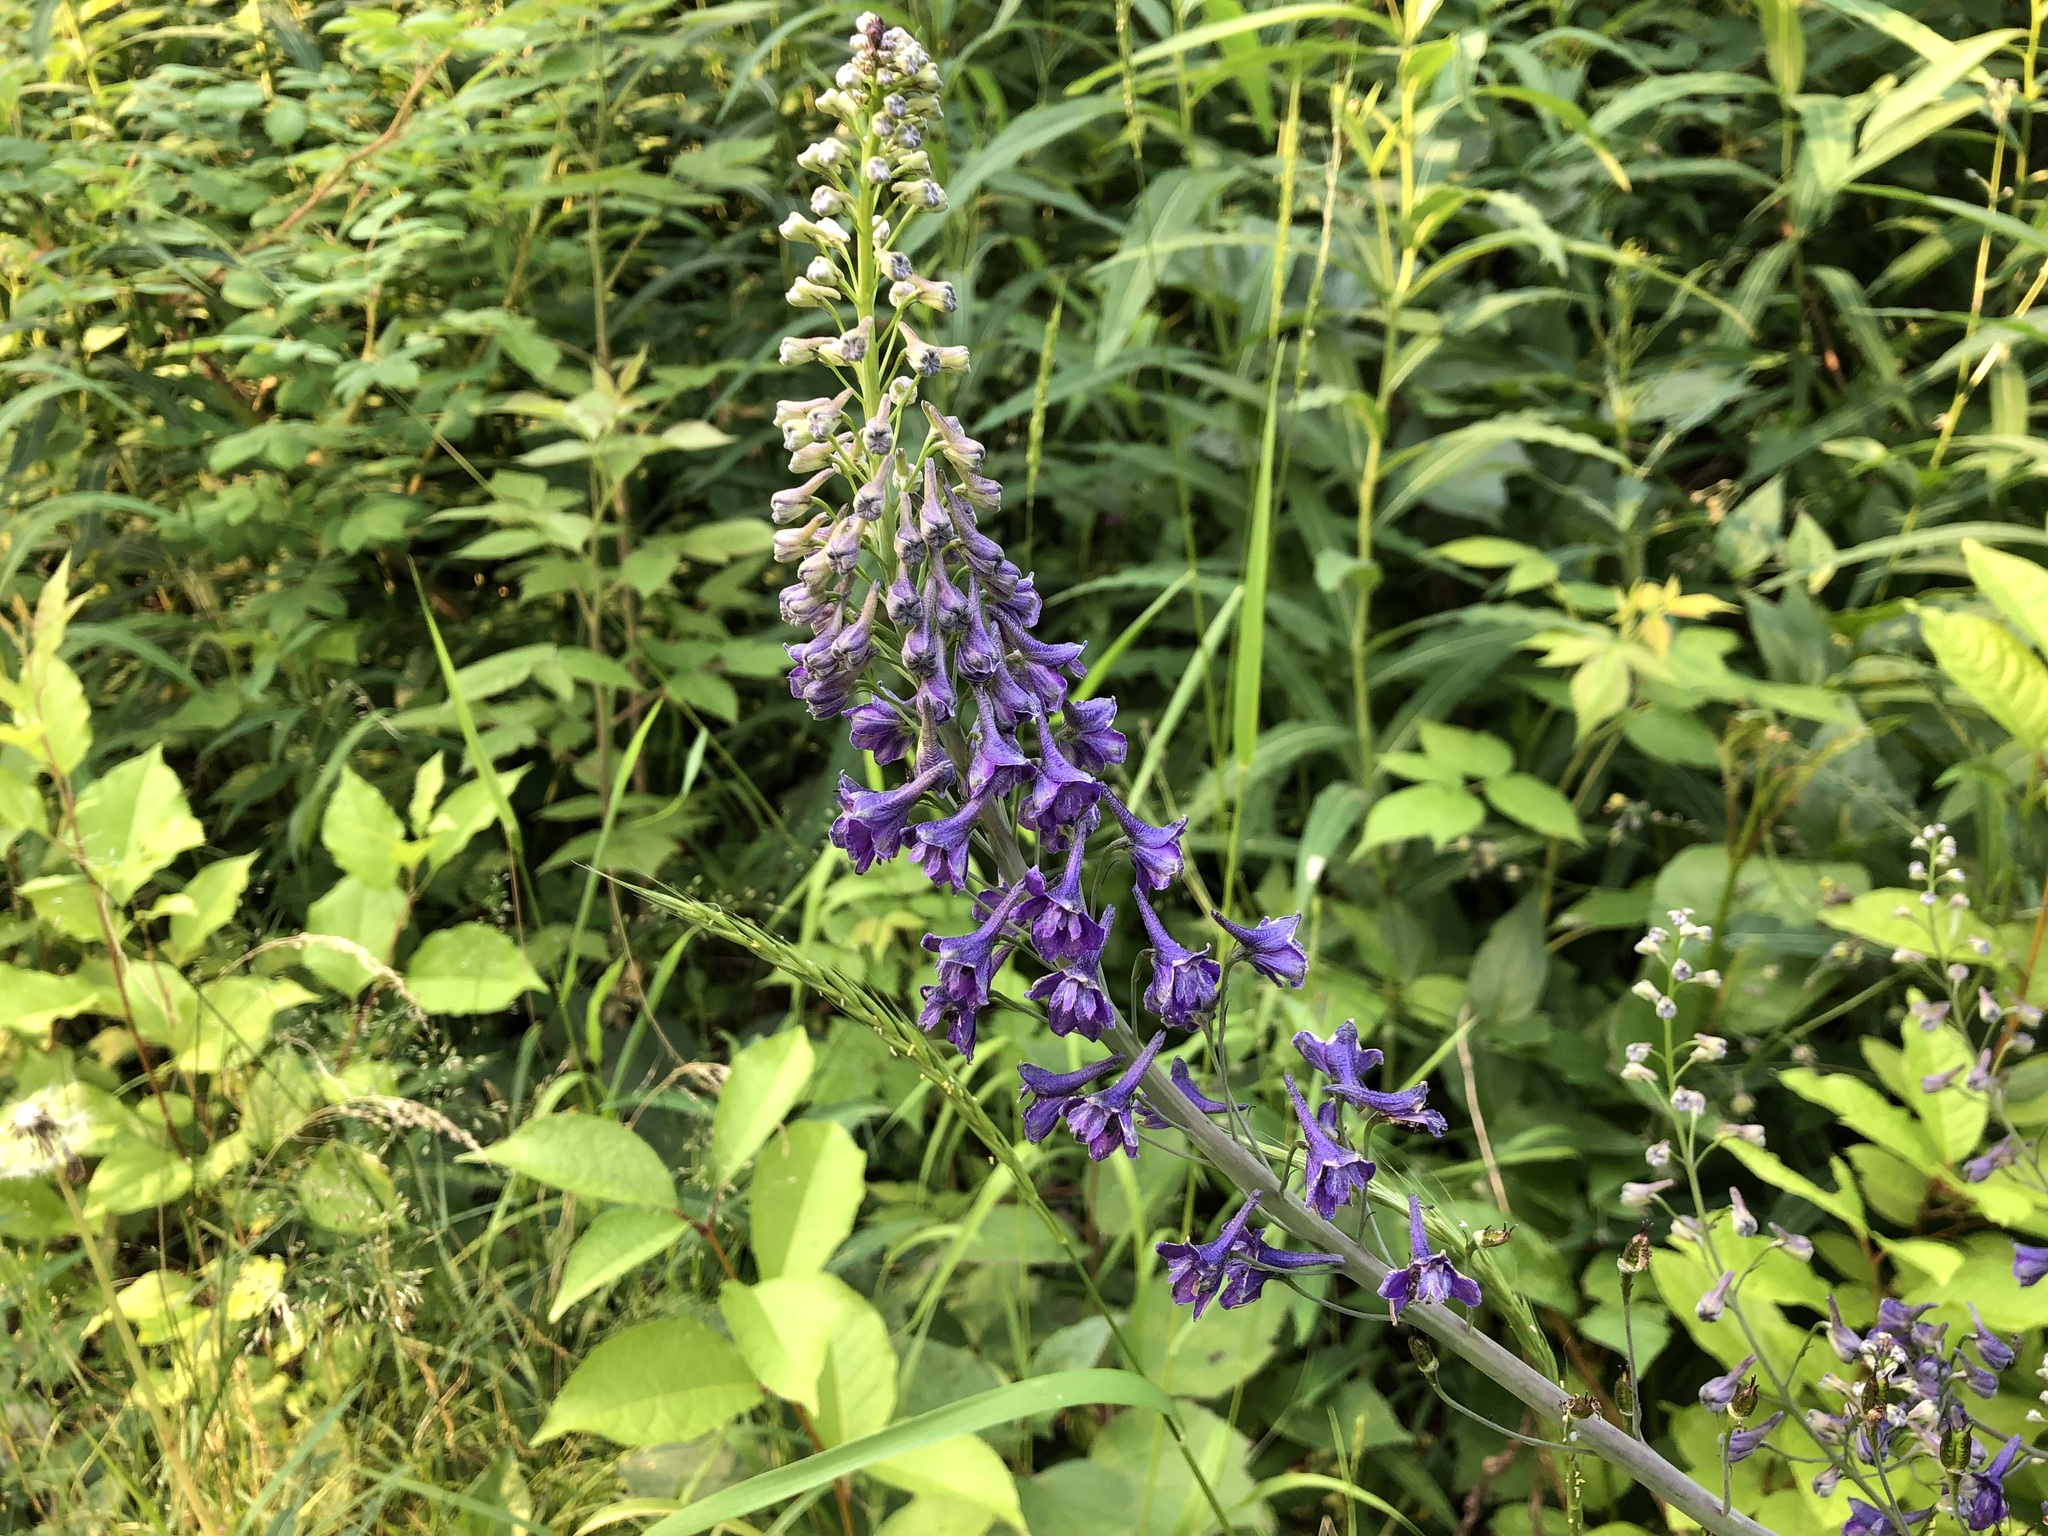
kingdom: Plantae
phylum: Tracheophyta
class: Magnoliopsida
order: Ranunculales
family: Ranunculaceae
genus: Delphinium
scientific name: Delphinium glaucum
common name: Brown's larkspur
